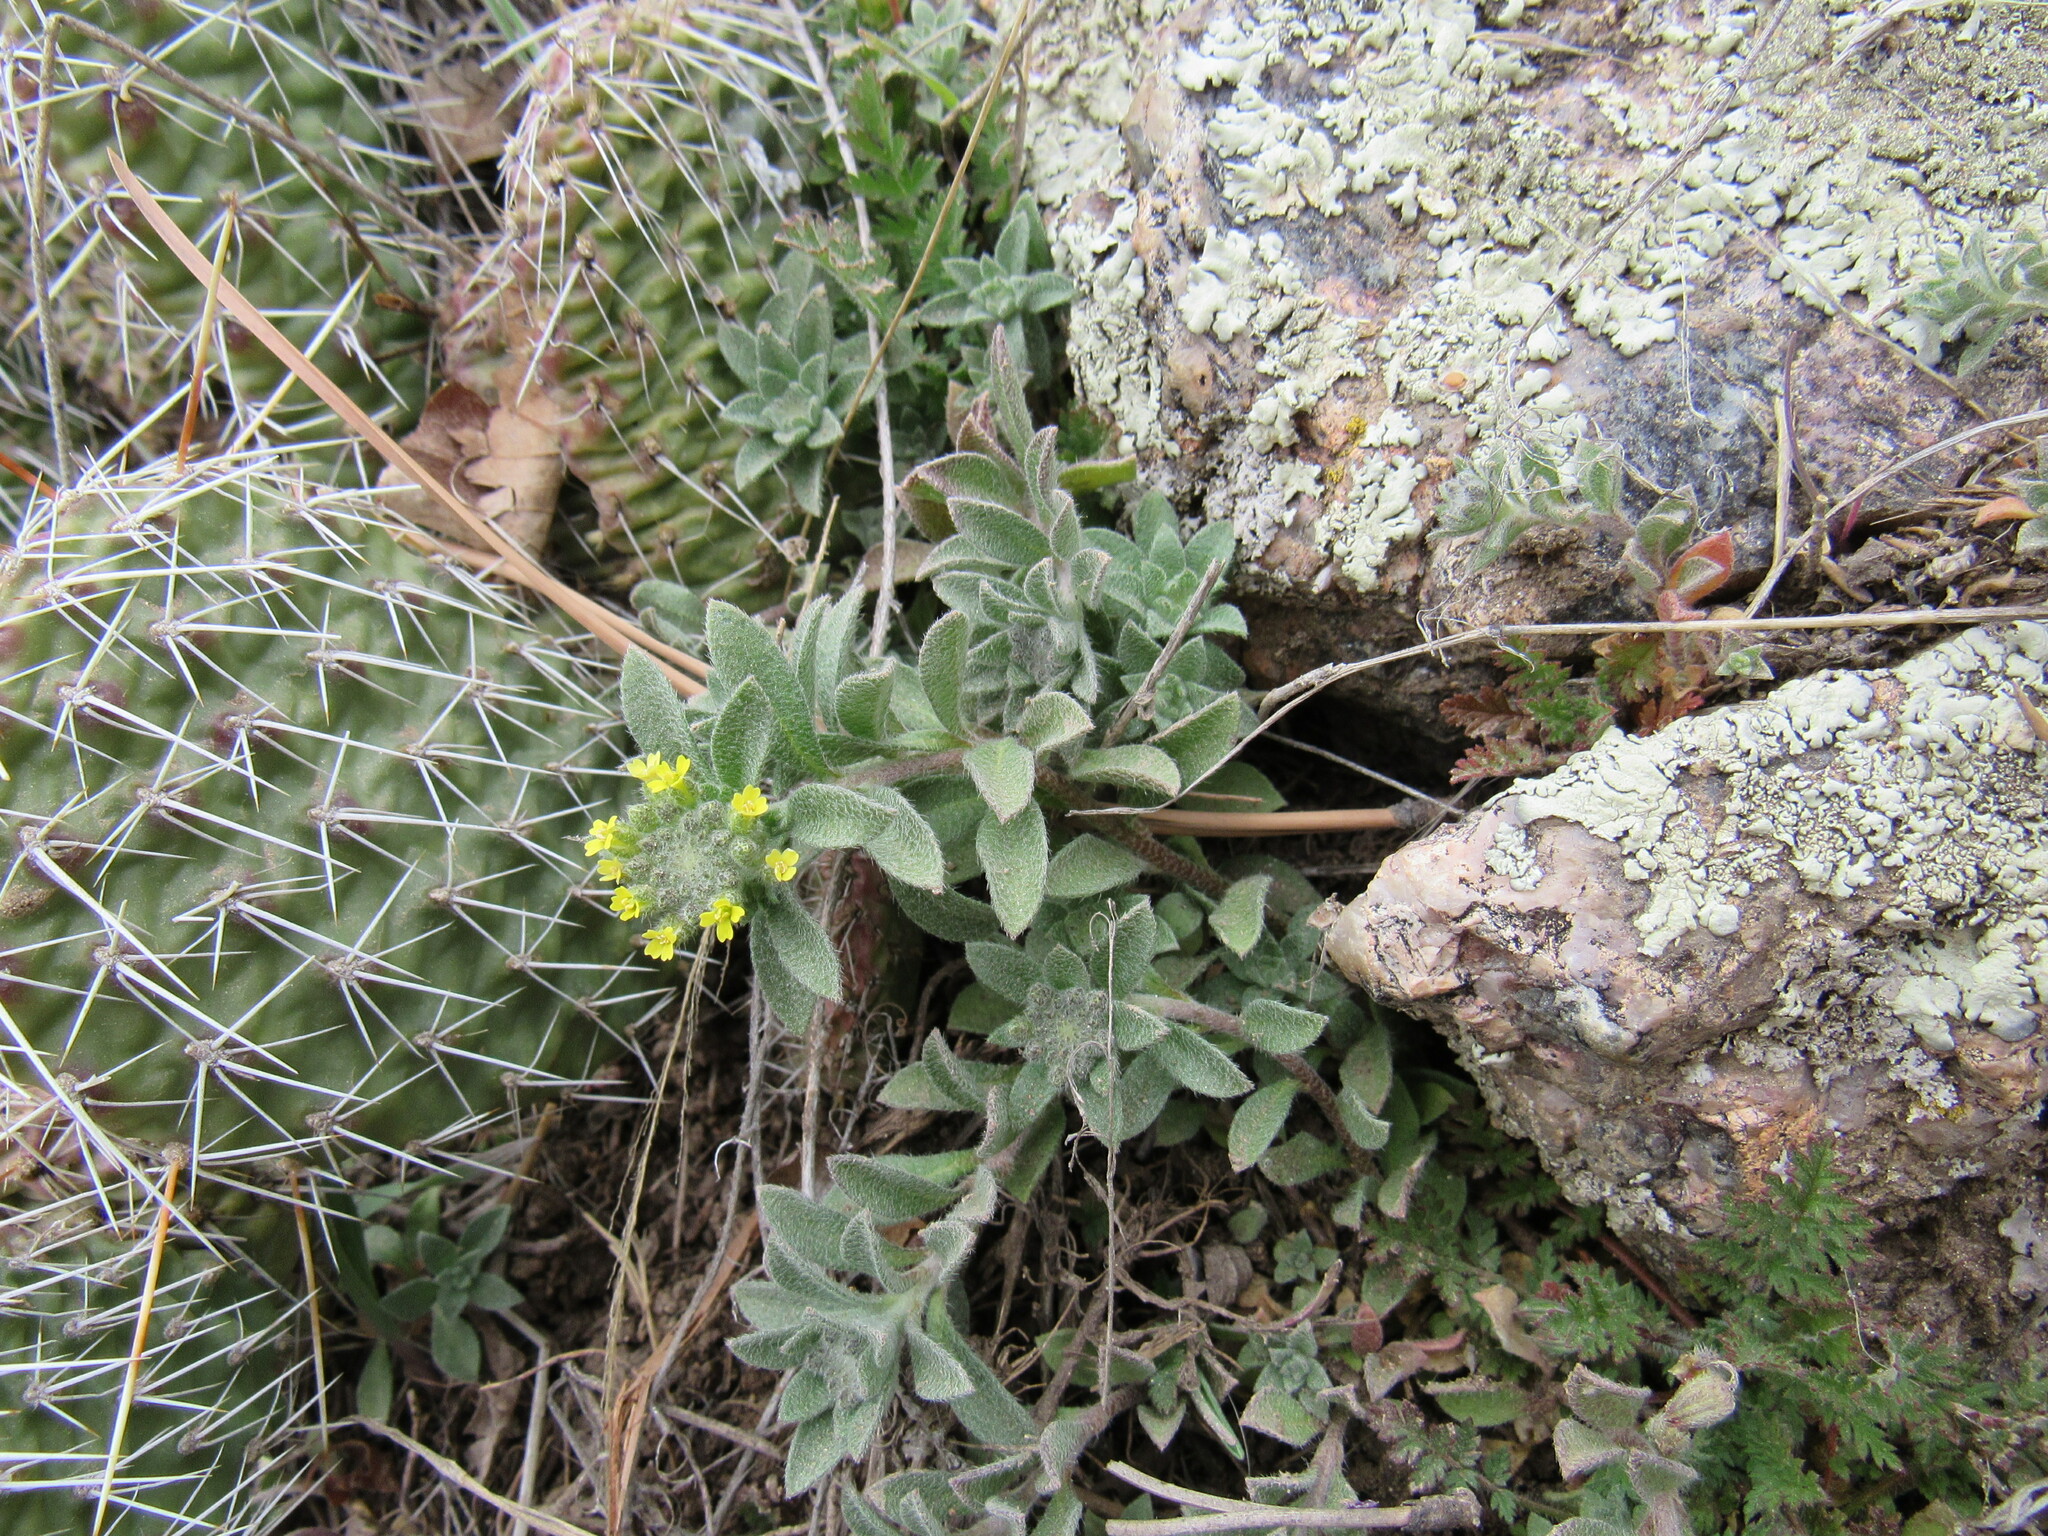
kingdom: Plantae
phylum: Tracheophyta
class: Magnoliopsida
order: Brassicales
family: Brassicaceae
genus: Alyssum
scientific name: Alyssum simplex
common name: Alyssum
